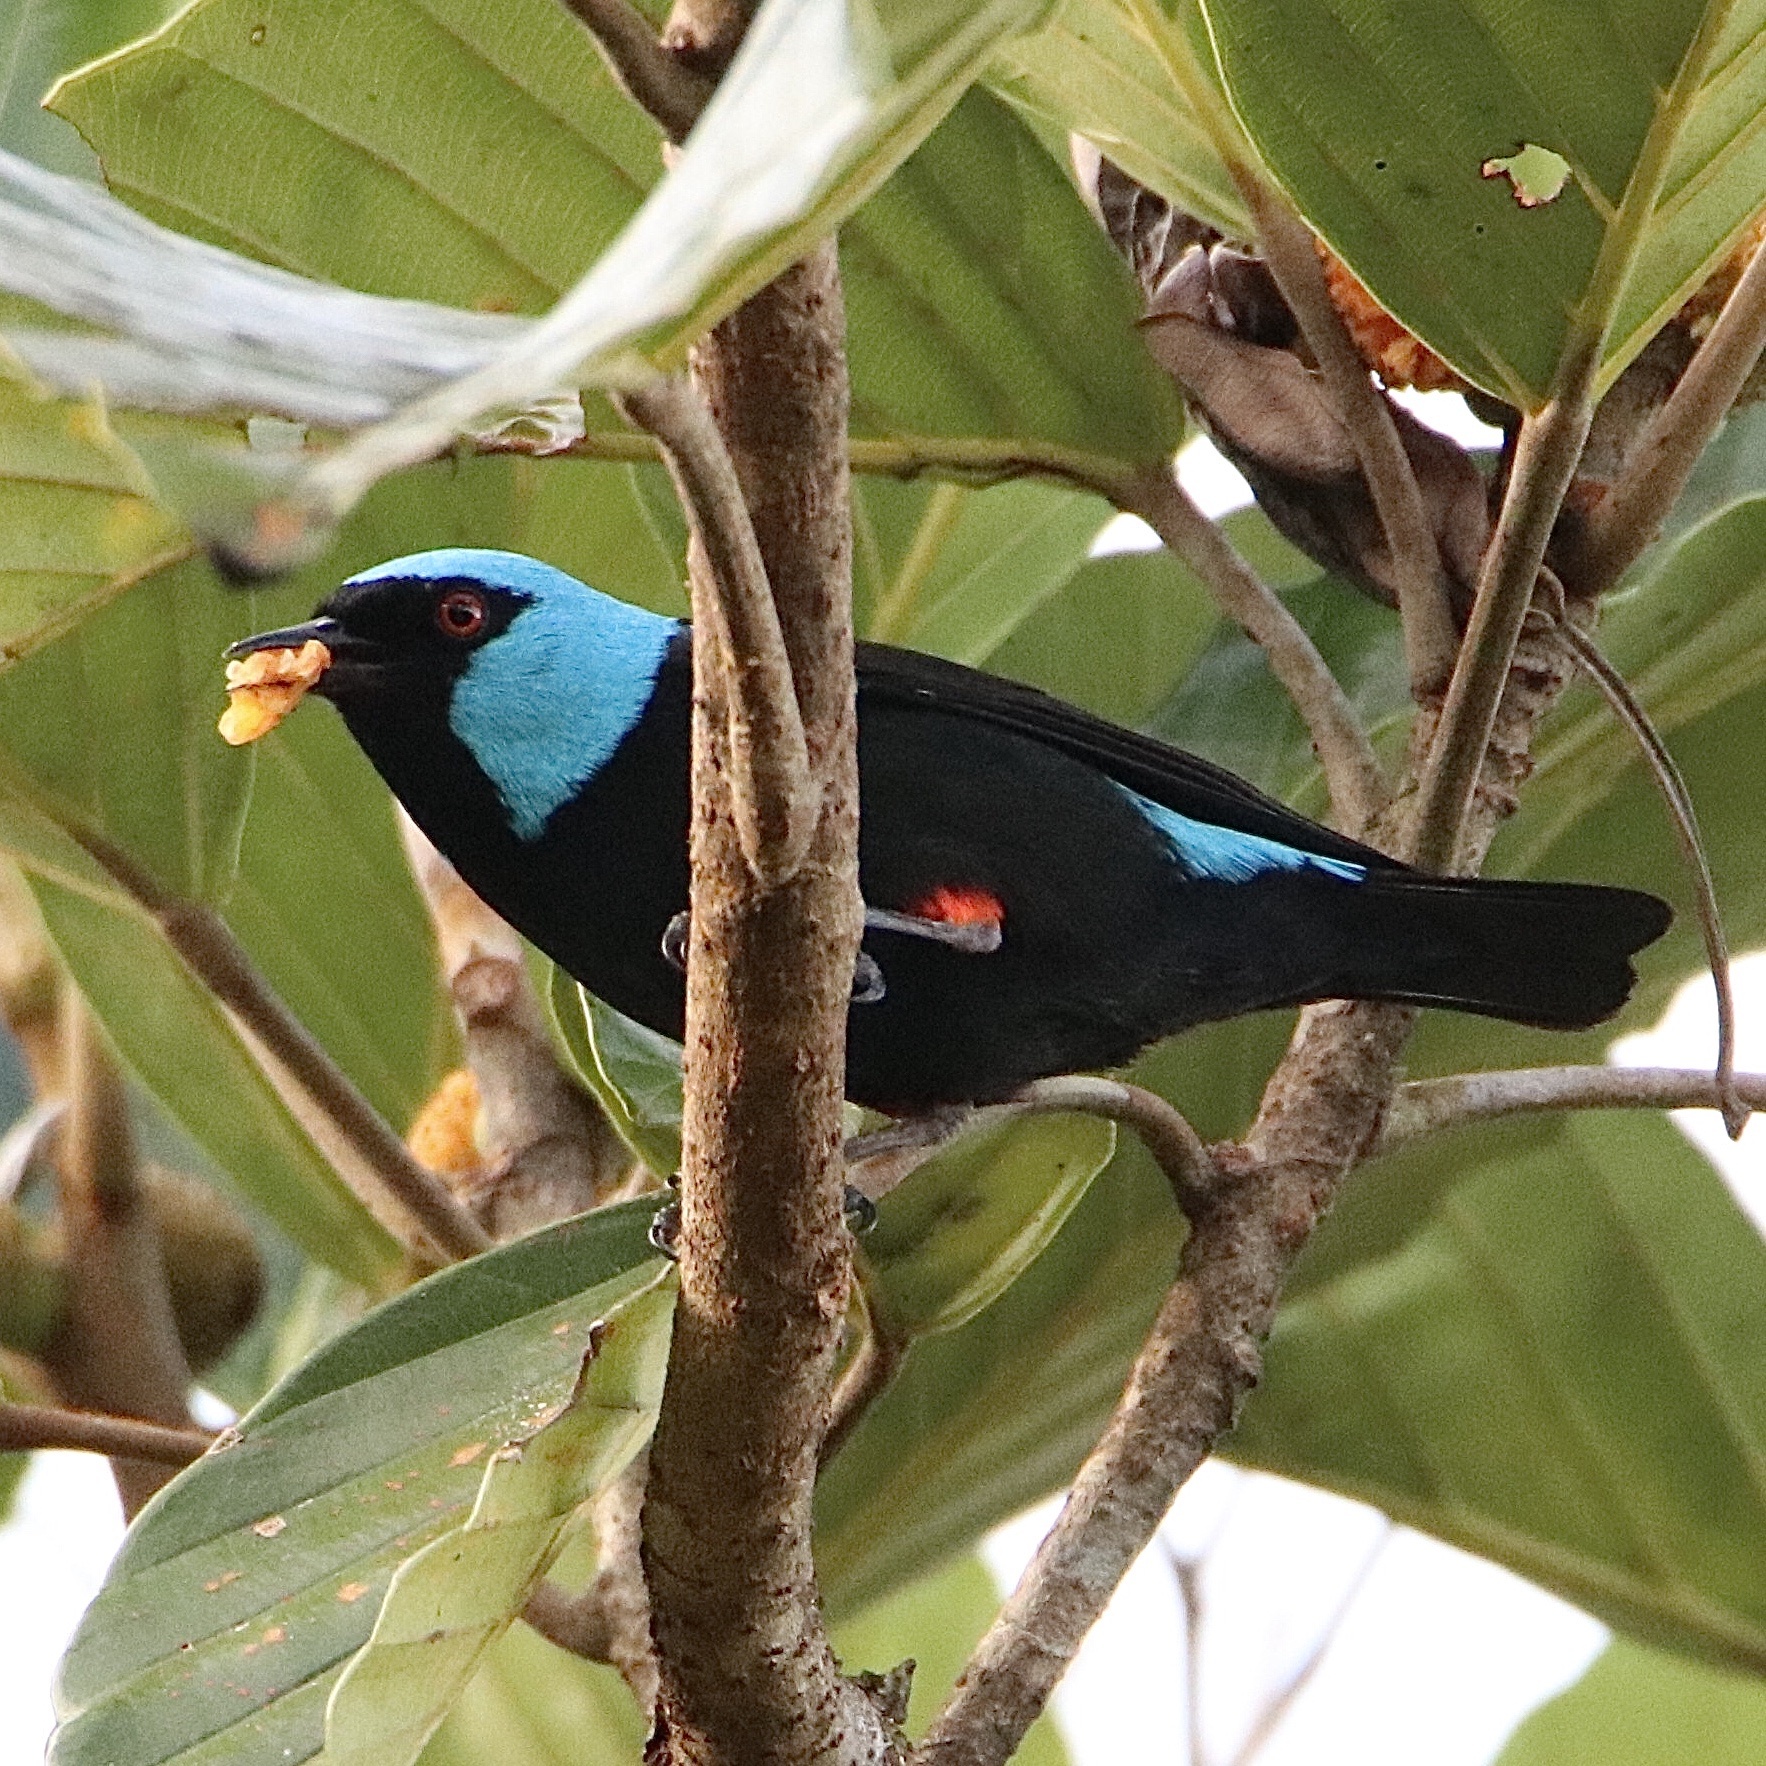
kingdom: Animalia
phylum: Chordata
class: Aves
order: Passeriformes
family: Thraupidae
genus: Dacnis
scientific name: Dacnis venusta
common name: Scarlet-thighed dacnis
